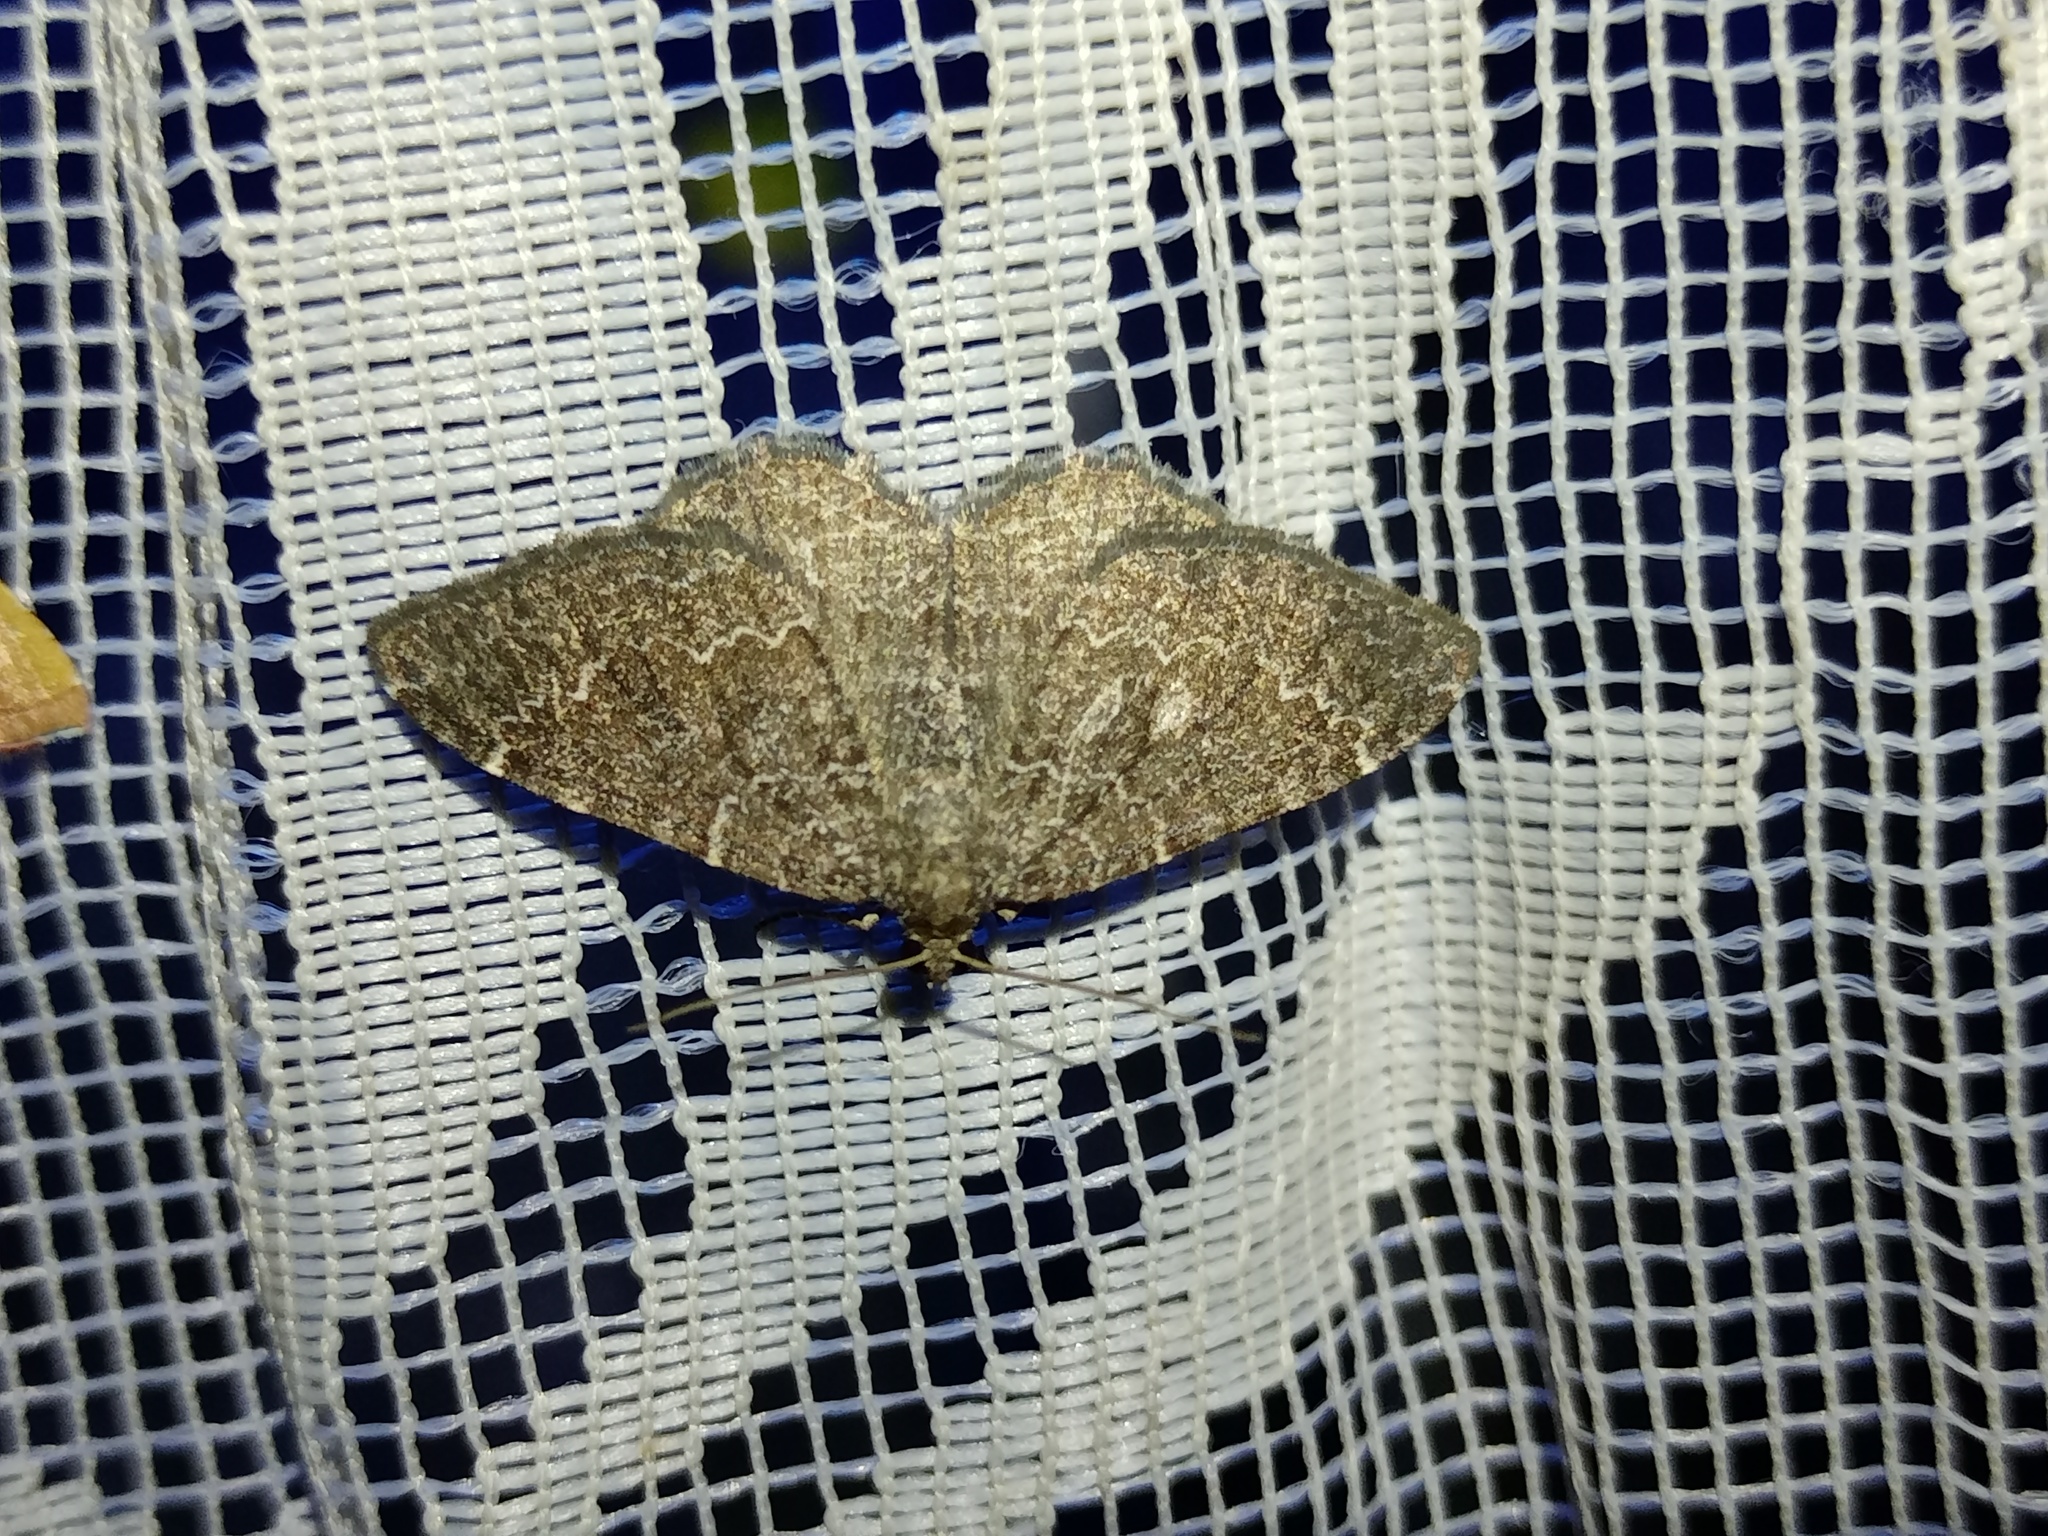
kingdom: Animalia
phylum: Arthropoda
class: Insecta
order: Lepidoptera
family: Geometridae
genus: Cataclysme
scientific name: Cataclysme riguata
